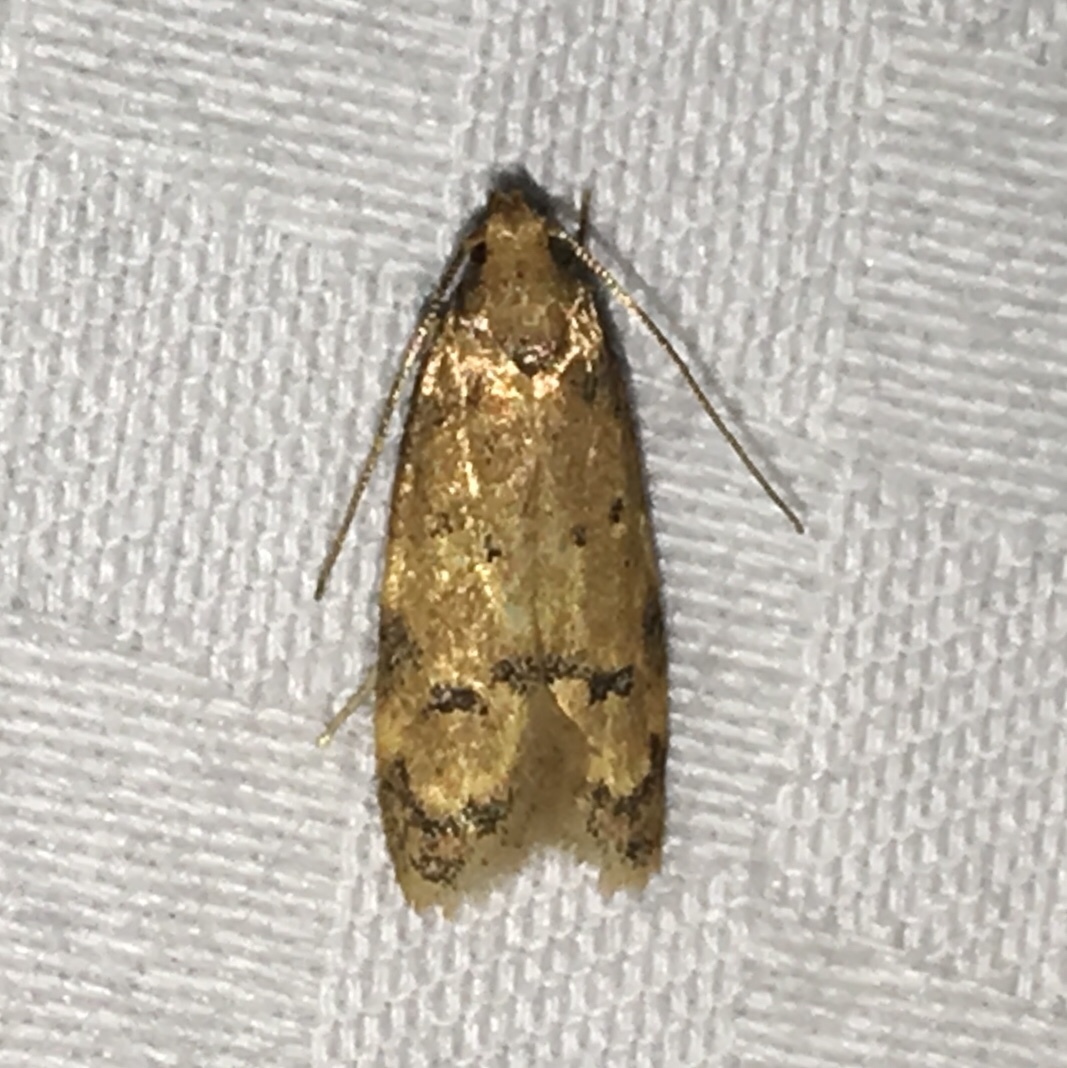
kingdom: Animalia
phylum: Arthropoda
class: Insecta
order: Lepidoptera
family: Autostichidae
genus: Gerdana
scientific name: Gerdana caritella
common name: Gerdana moth
